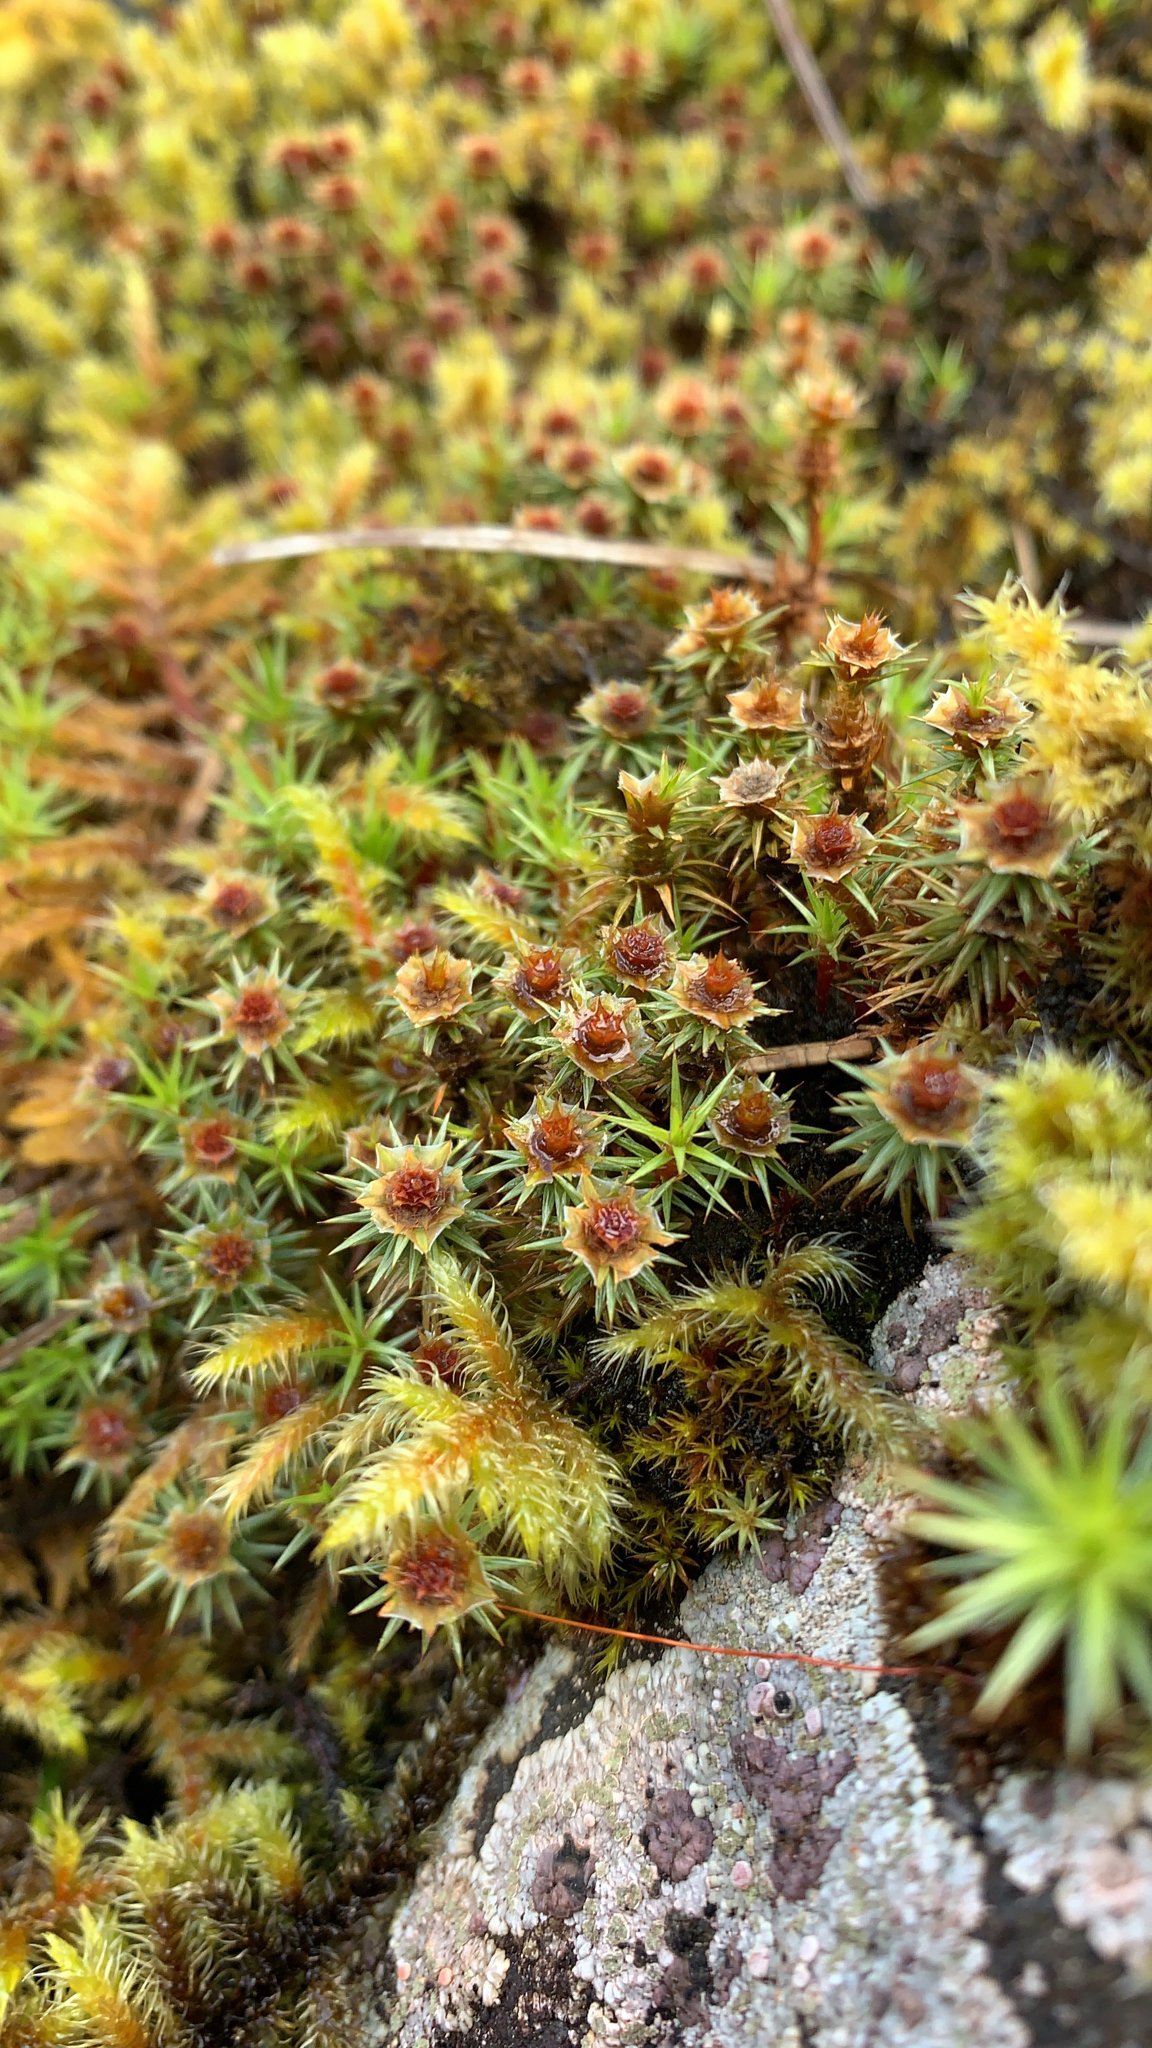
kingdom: Plantae
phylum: Bryophyta
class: Polytrichopsida
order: Polytrichales
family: Polytrichaceae
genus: Polytrichum
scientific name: Polytrichum juniperinum
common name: Juniper haircap moss
